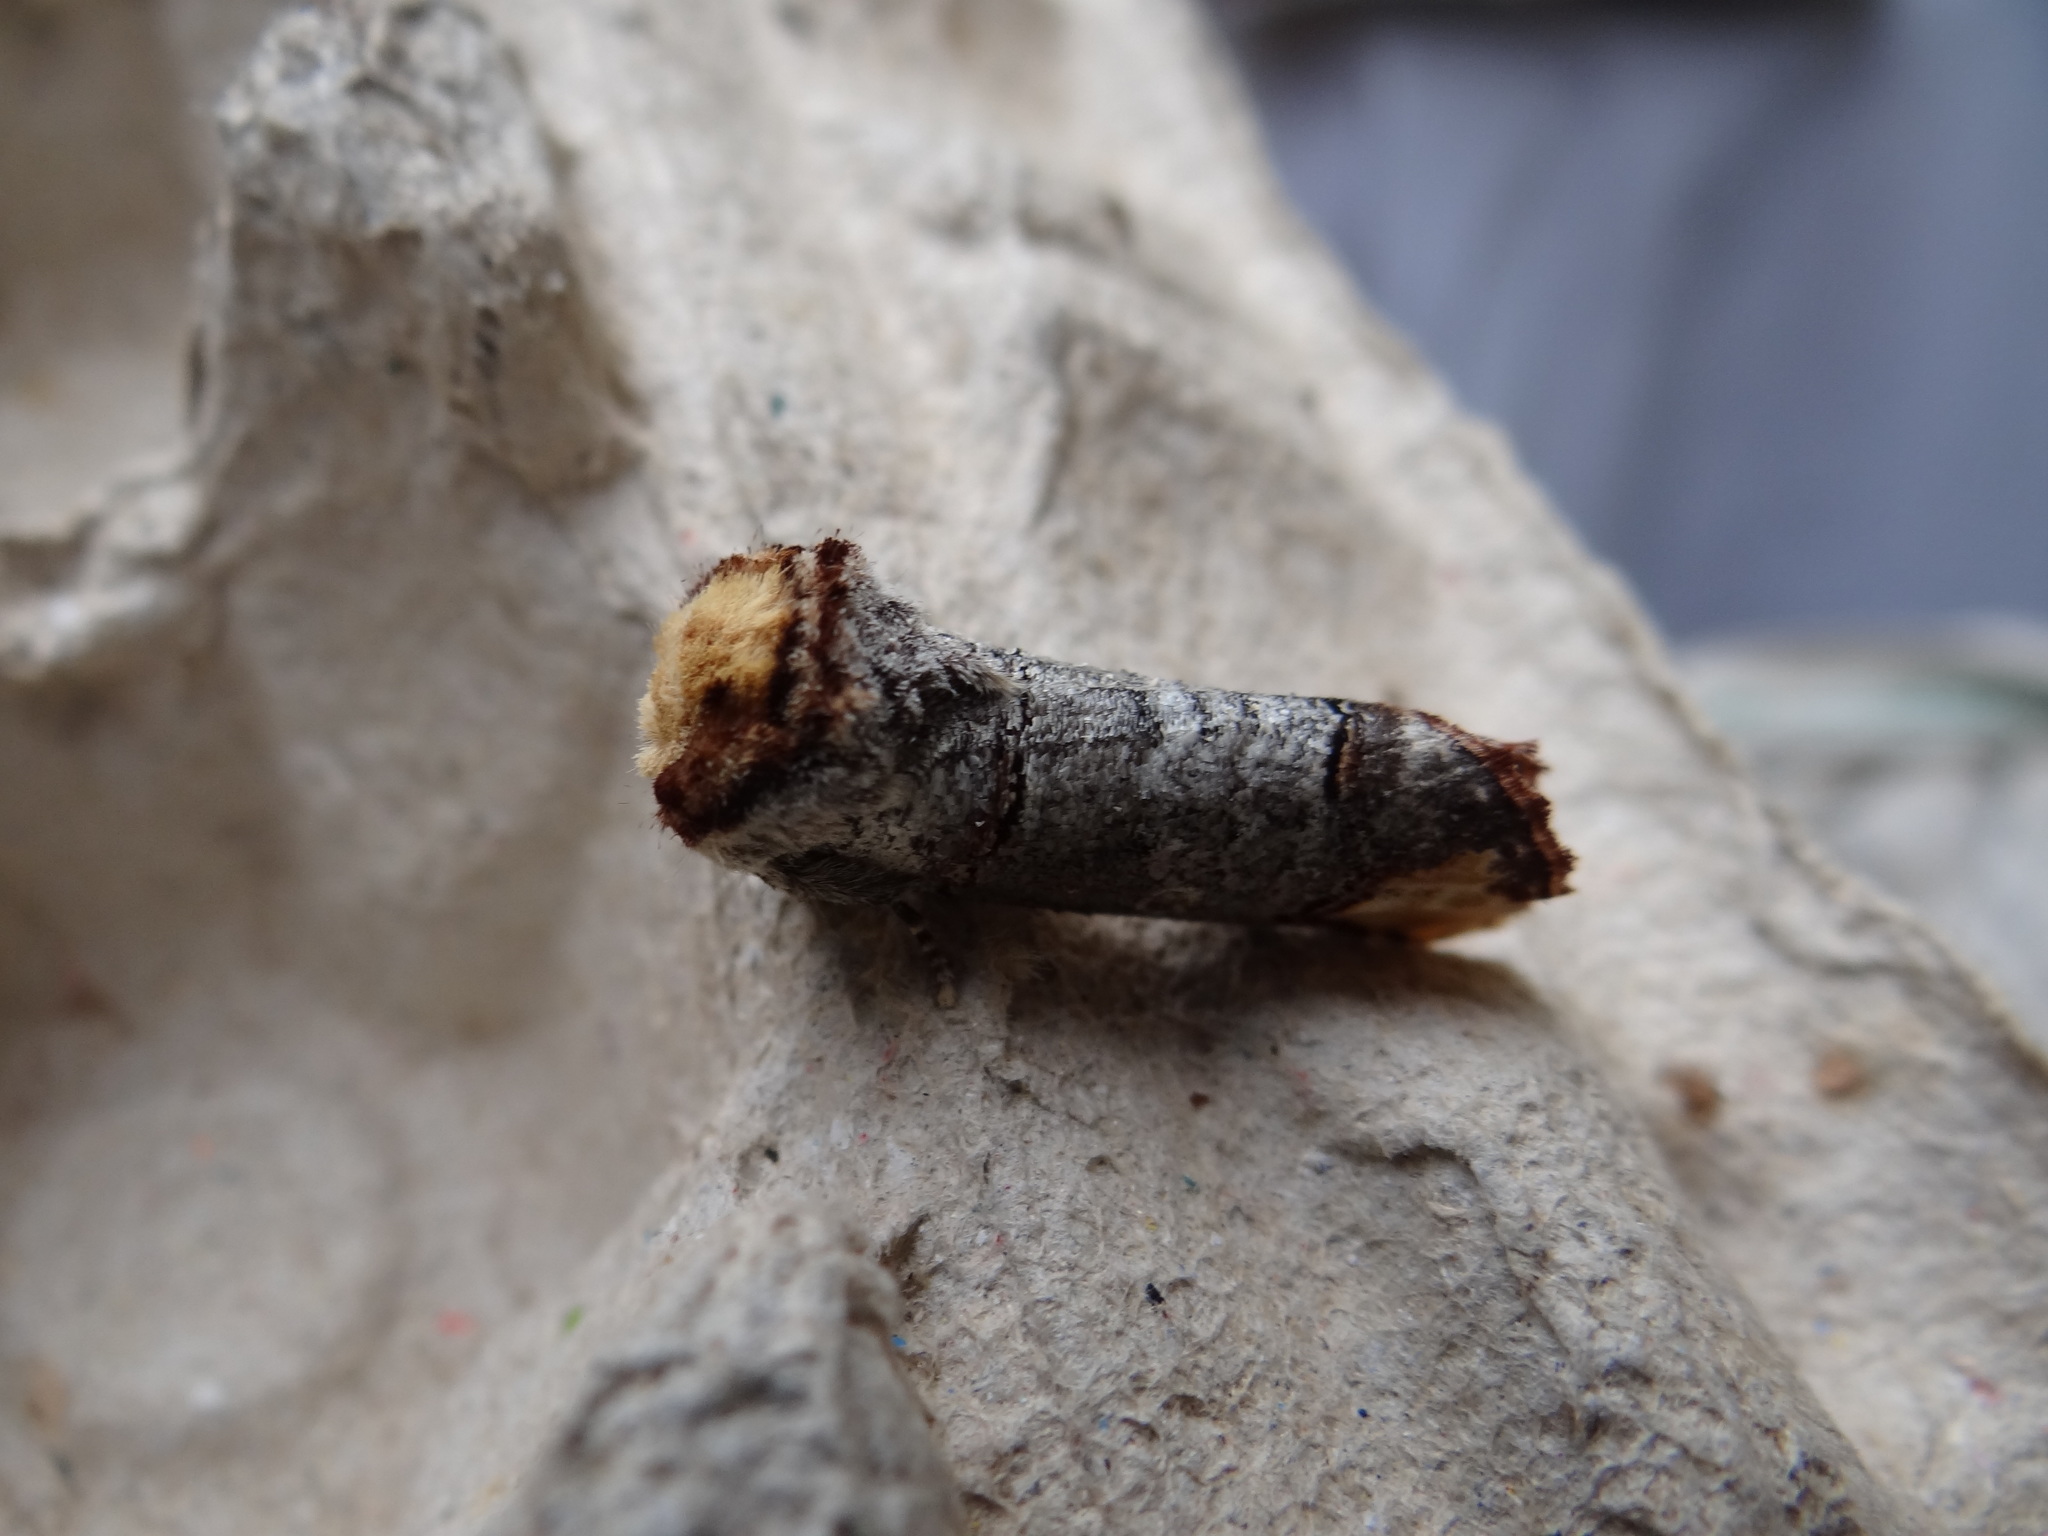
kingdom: Animalia
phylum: Arthropoda
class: Insecta
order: Lepidoptera
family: Notodontidae
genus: Phalera
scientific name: Phalera bucephala
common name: Buff-tip
